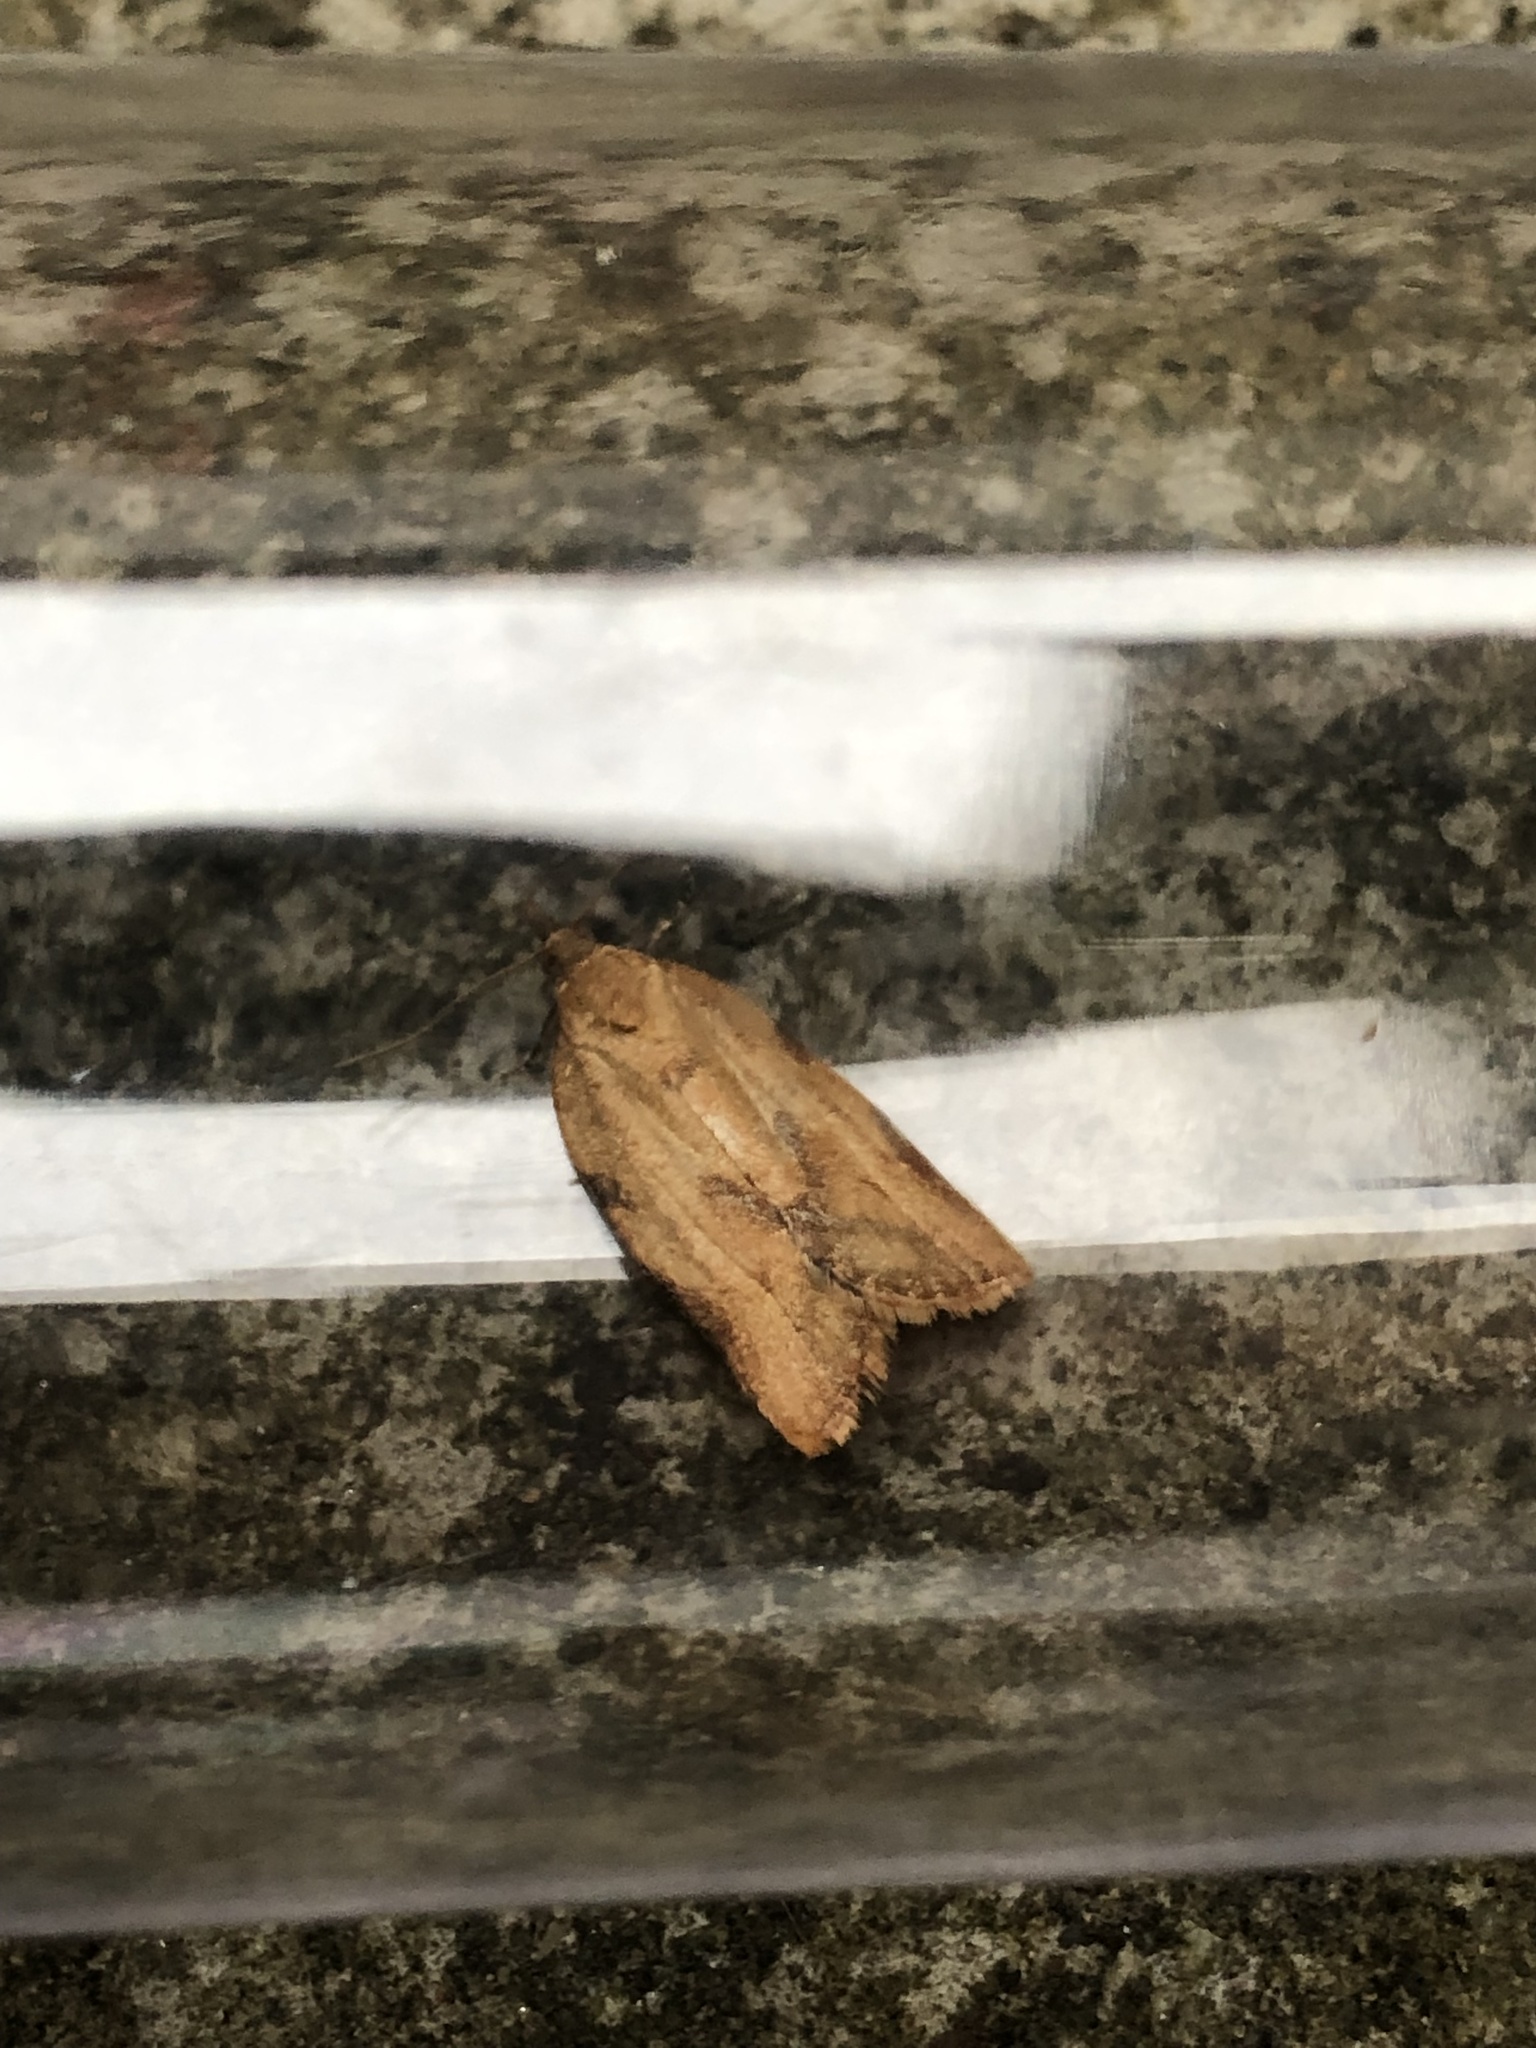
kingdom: Animalia
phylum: Arthropoda
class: Insecta
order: Lepidoptera
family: Tortricidae
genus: Epiphyas
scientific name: Epiphyas postvittana
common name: Light brown apple moth
